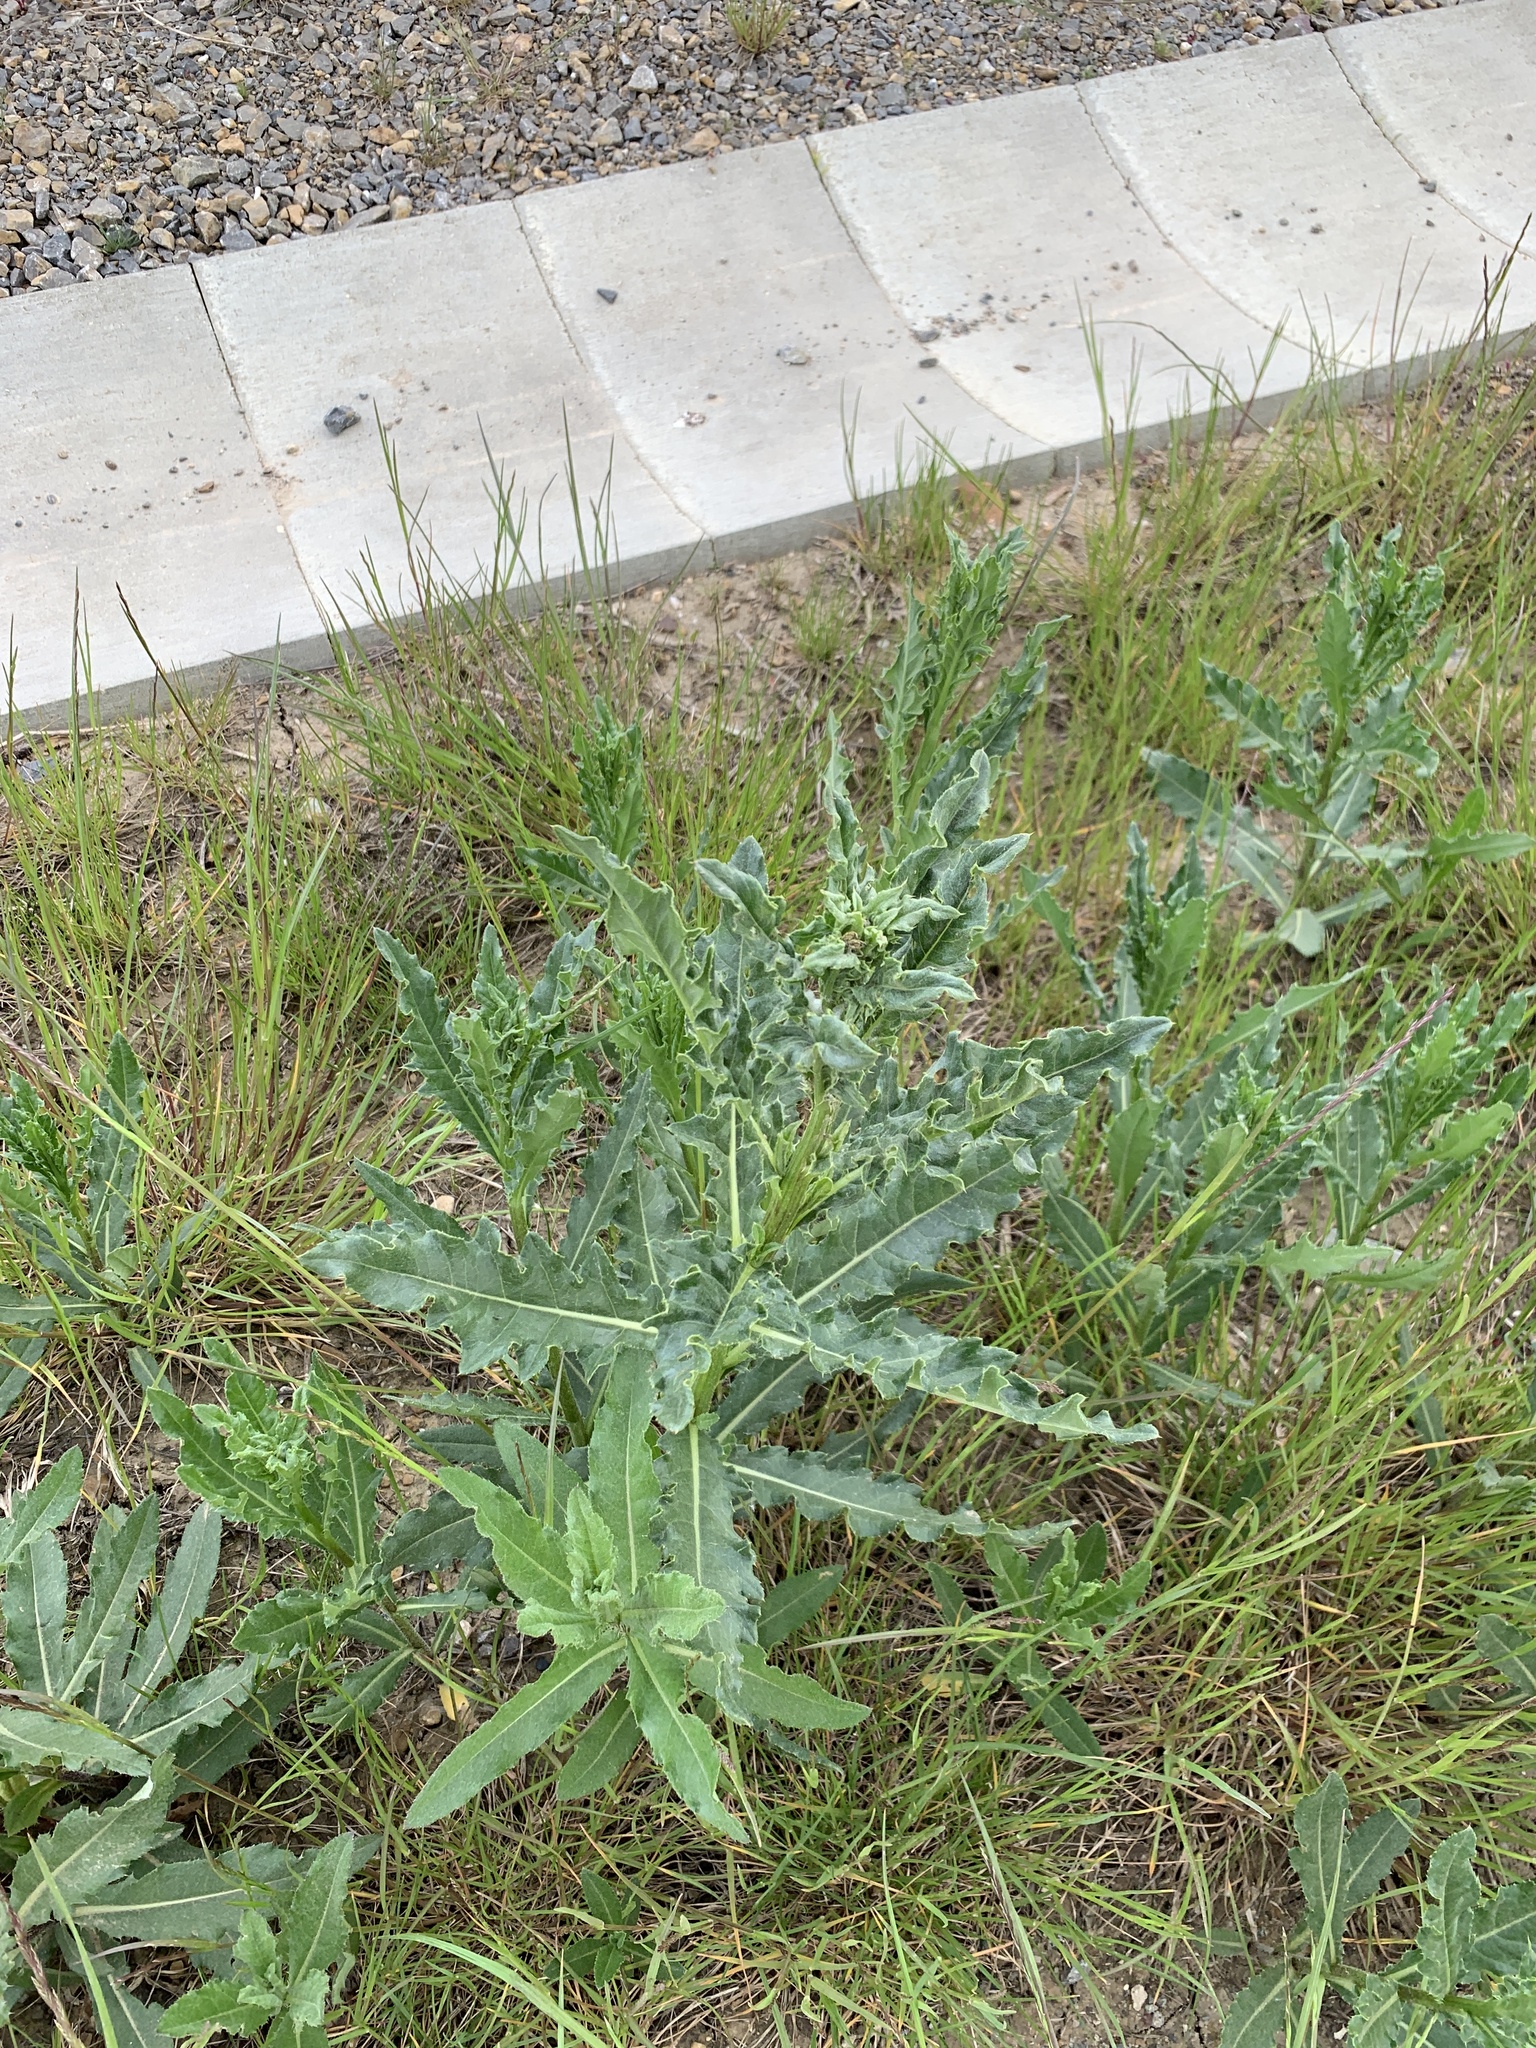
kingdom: Plantae
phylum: Tracheophyta
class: Magnoliopsida
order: Asterales
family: Asteraceae
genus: Cirsium
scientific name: Cirsium arvense
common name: Creeping thistle
